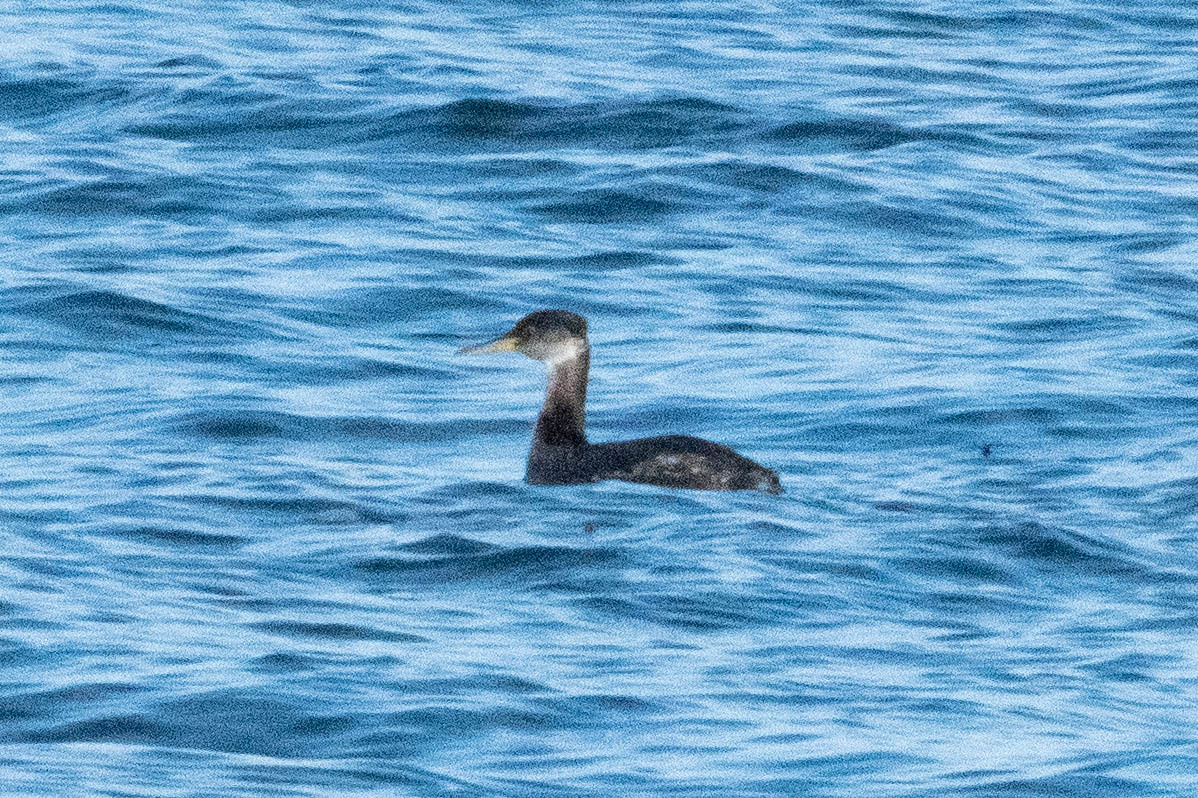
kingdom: Animalia
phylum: Chordata
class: Aves
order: Podicipediformes
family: Podicipedidae
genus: Podiceps
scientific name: Podiceps grisegena
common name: Red-necked grebe
